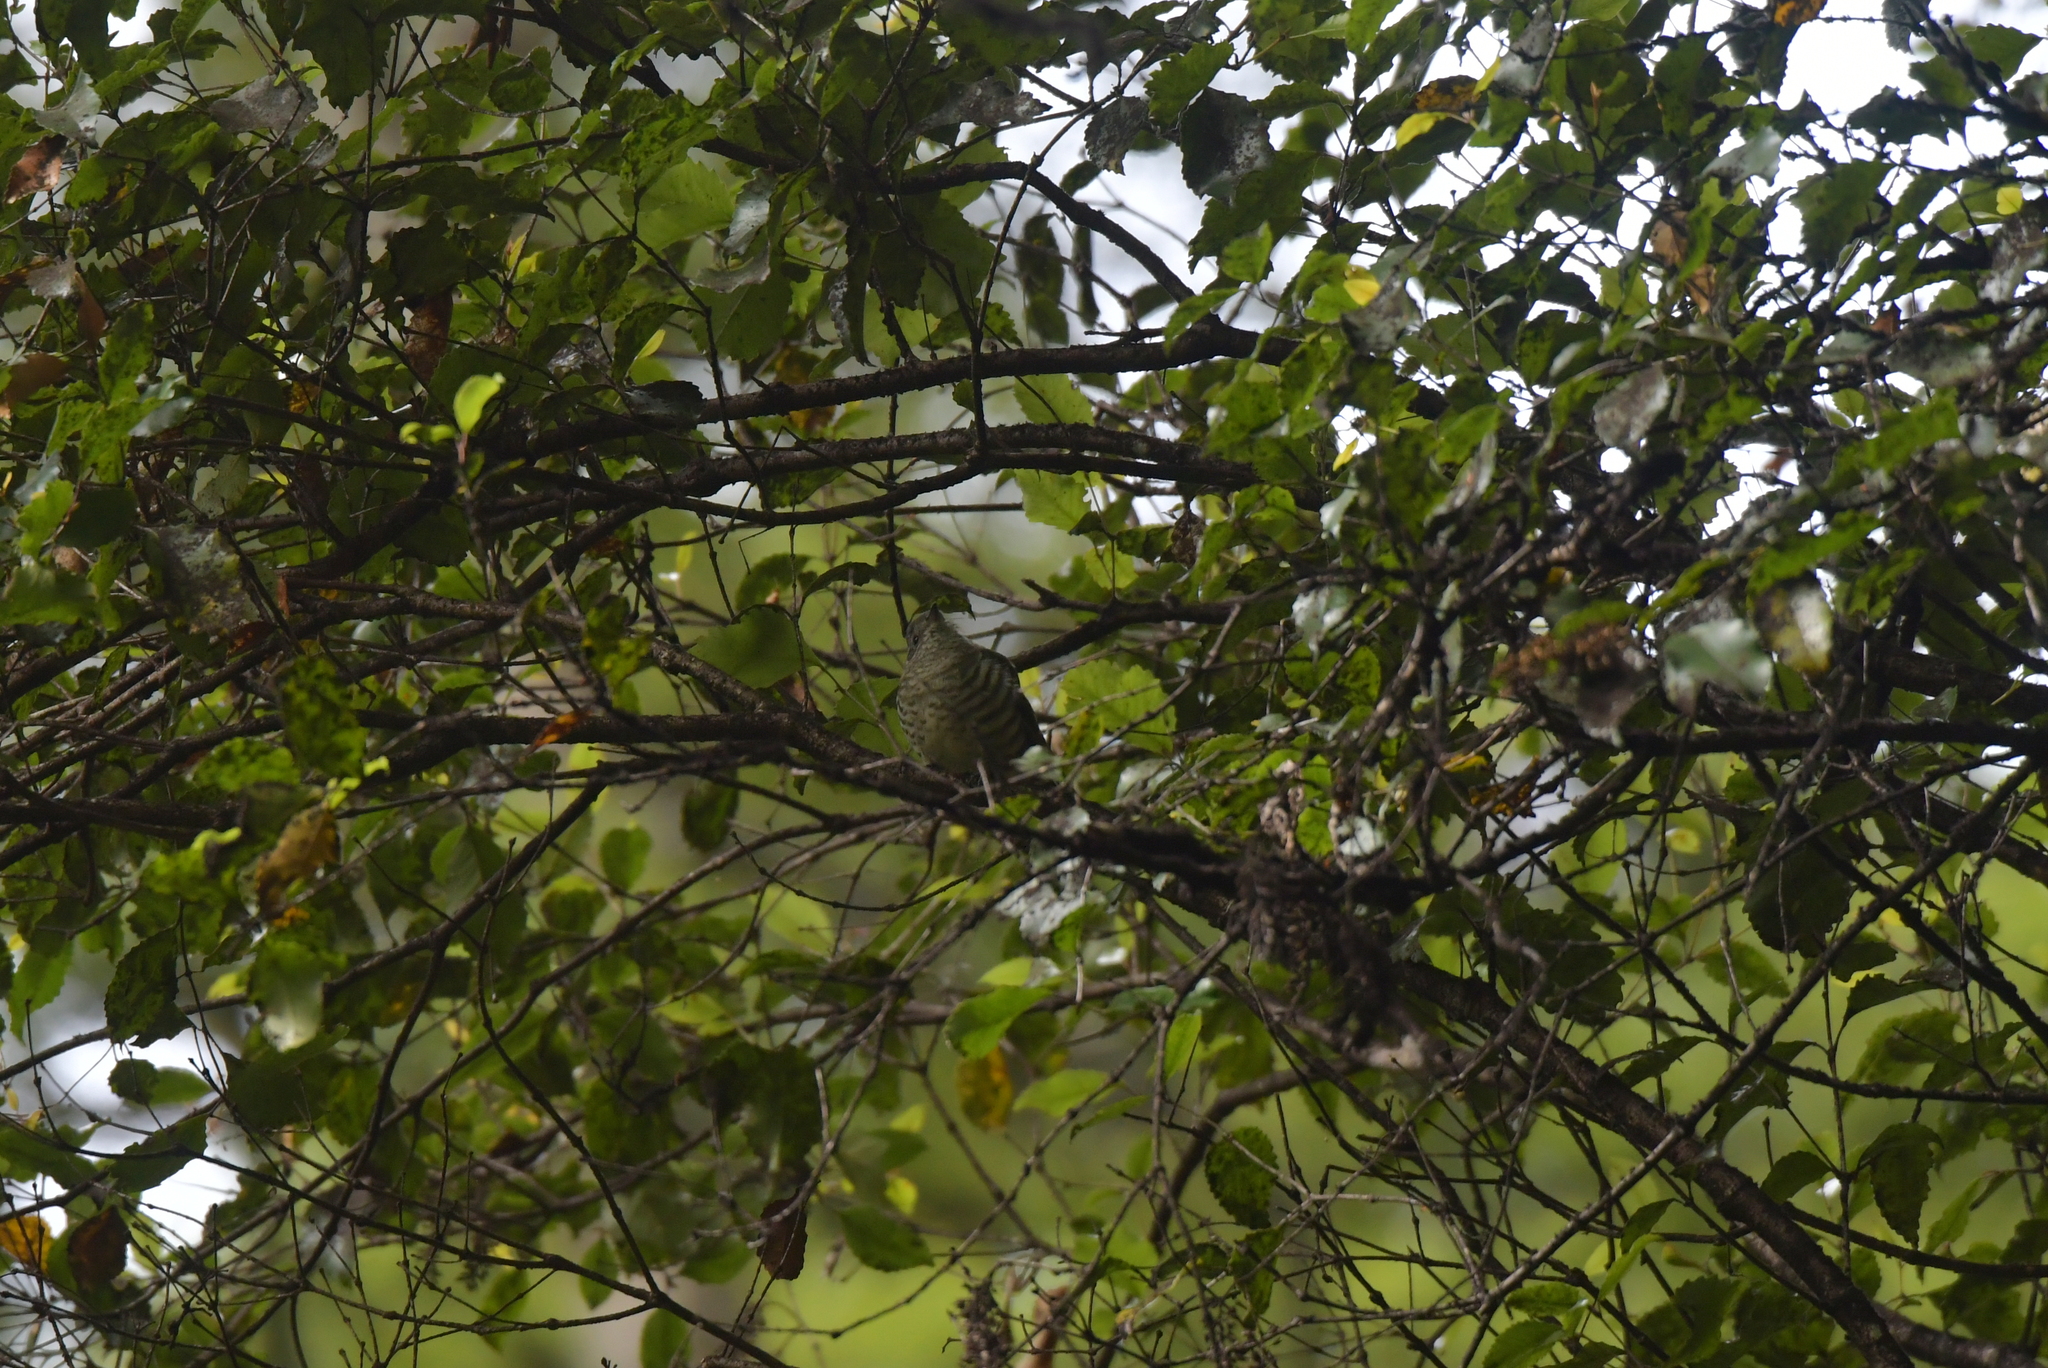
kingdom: Animalia
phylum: Chordata
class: Aves
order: Cuculiformes
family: Cuculidae
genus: Chrysococcyx
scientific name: Chrysococcyx lucidus
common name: Shining bronze cuckoo
